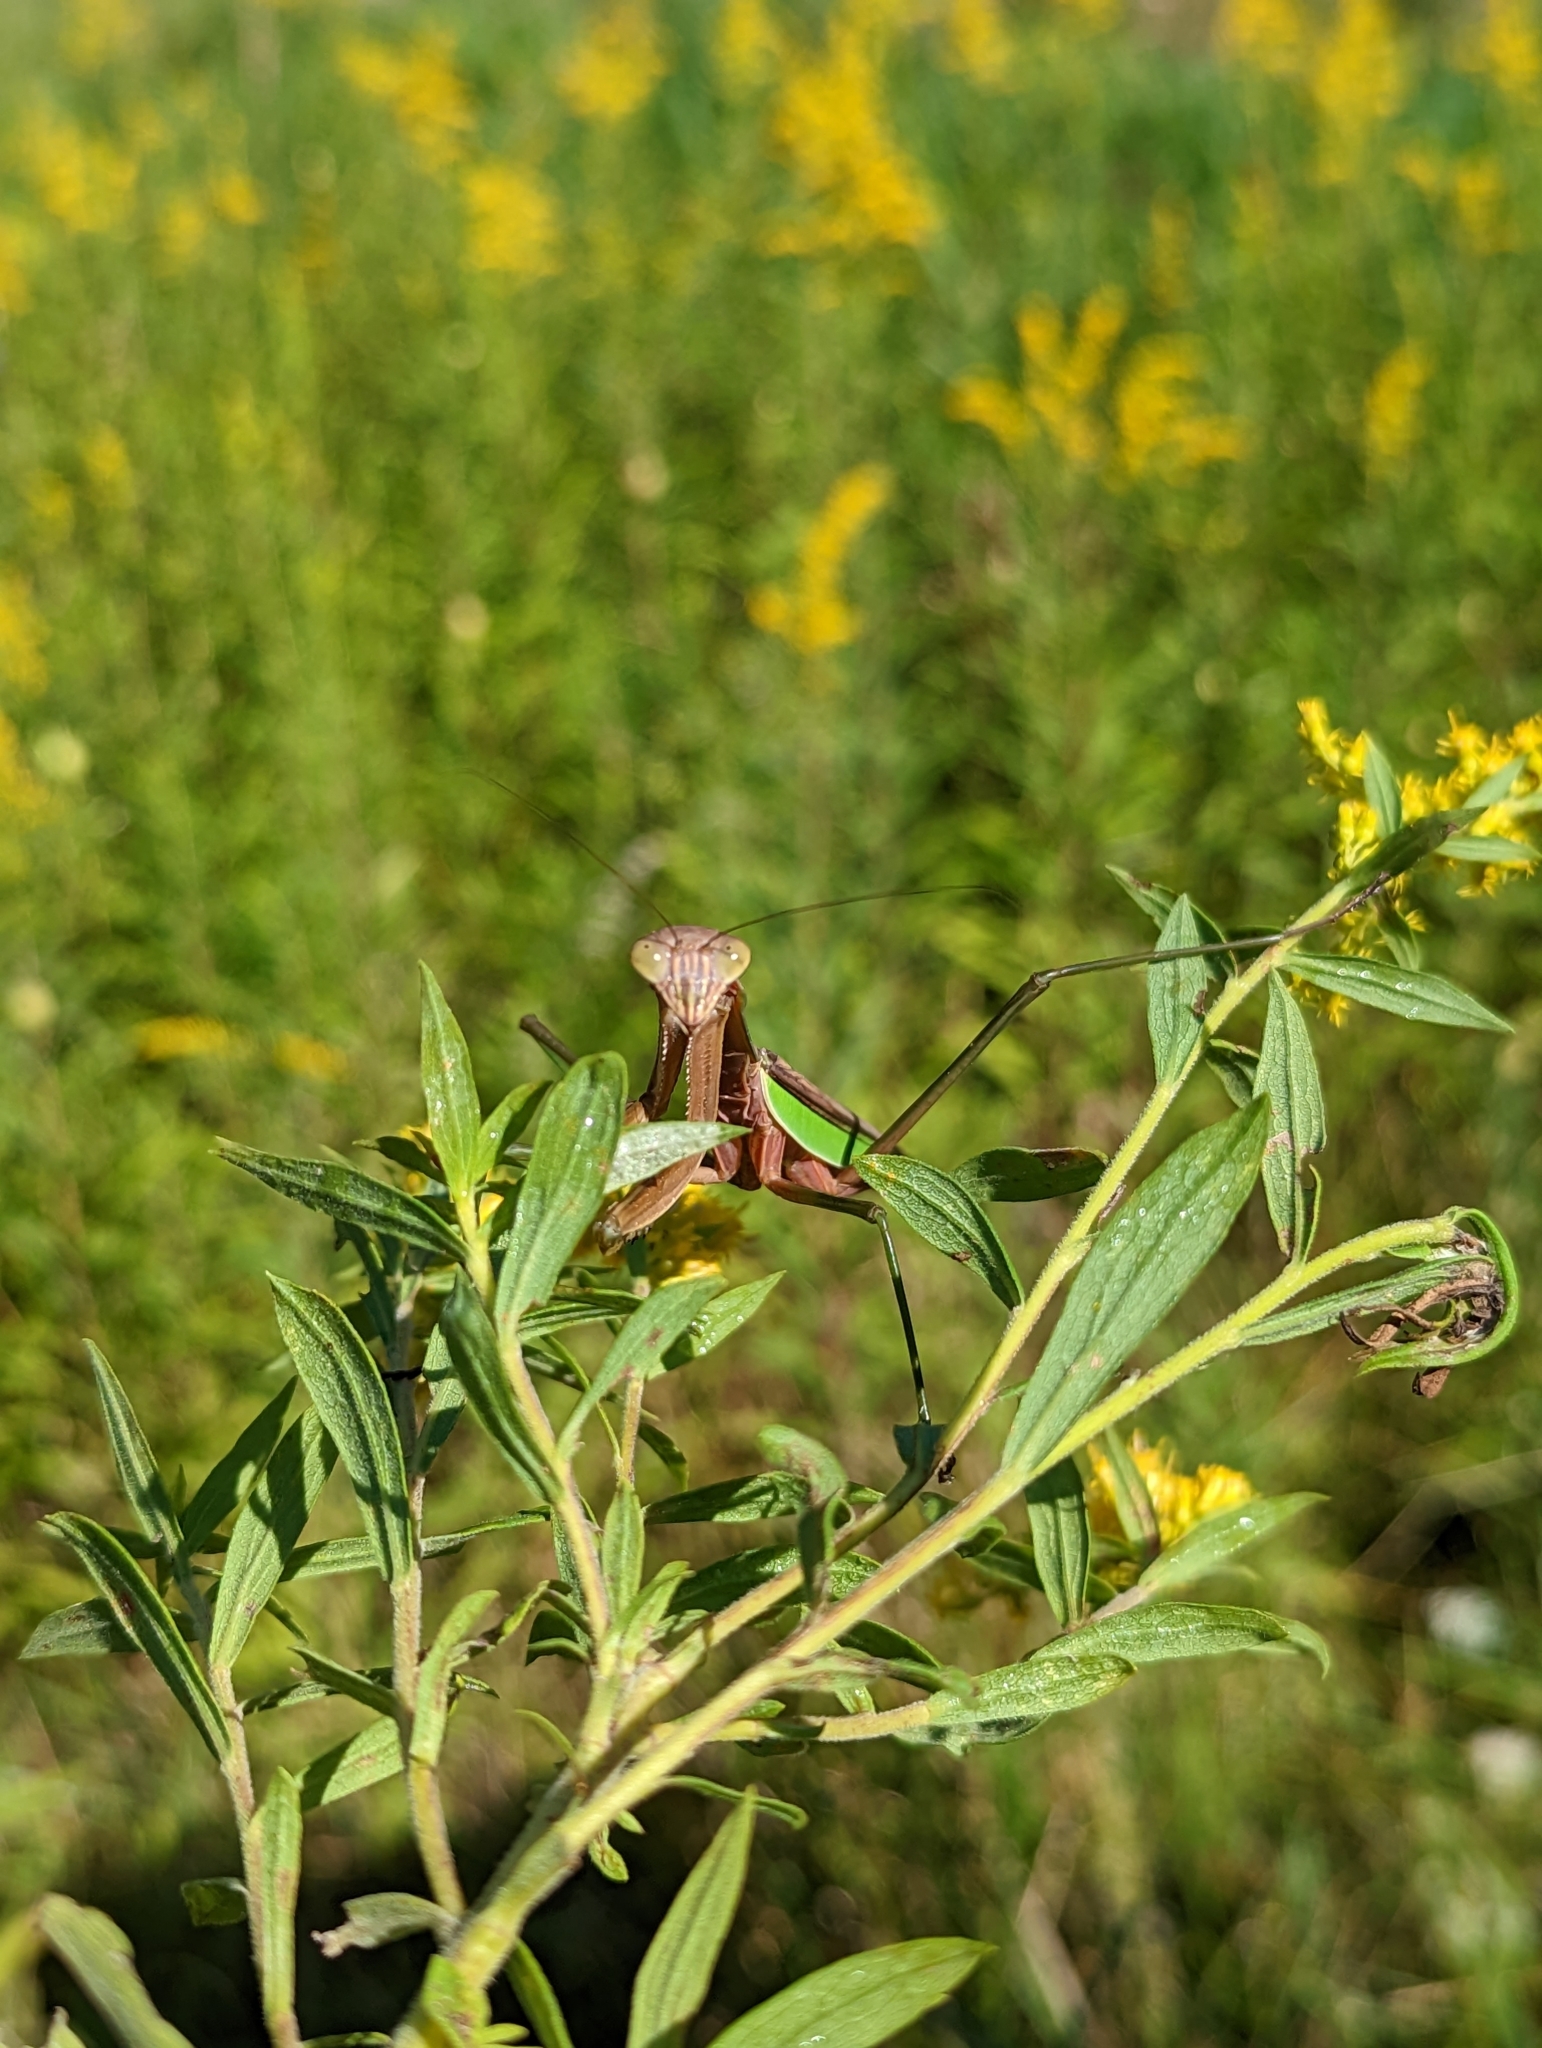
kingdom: Animalia
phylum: Arthropoda
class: Insecta
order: Mantodea
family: Mantidae
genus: Tenodera
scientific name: Tenodera sinensis
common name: Chinese mantis
